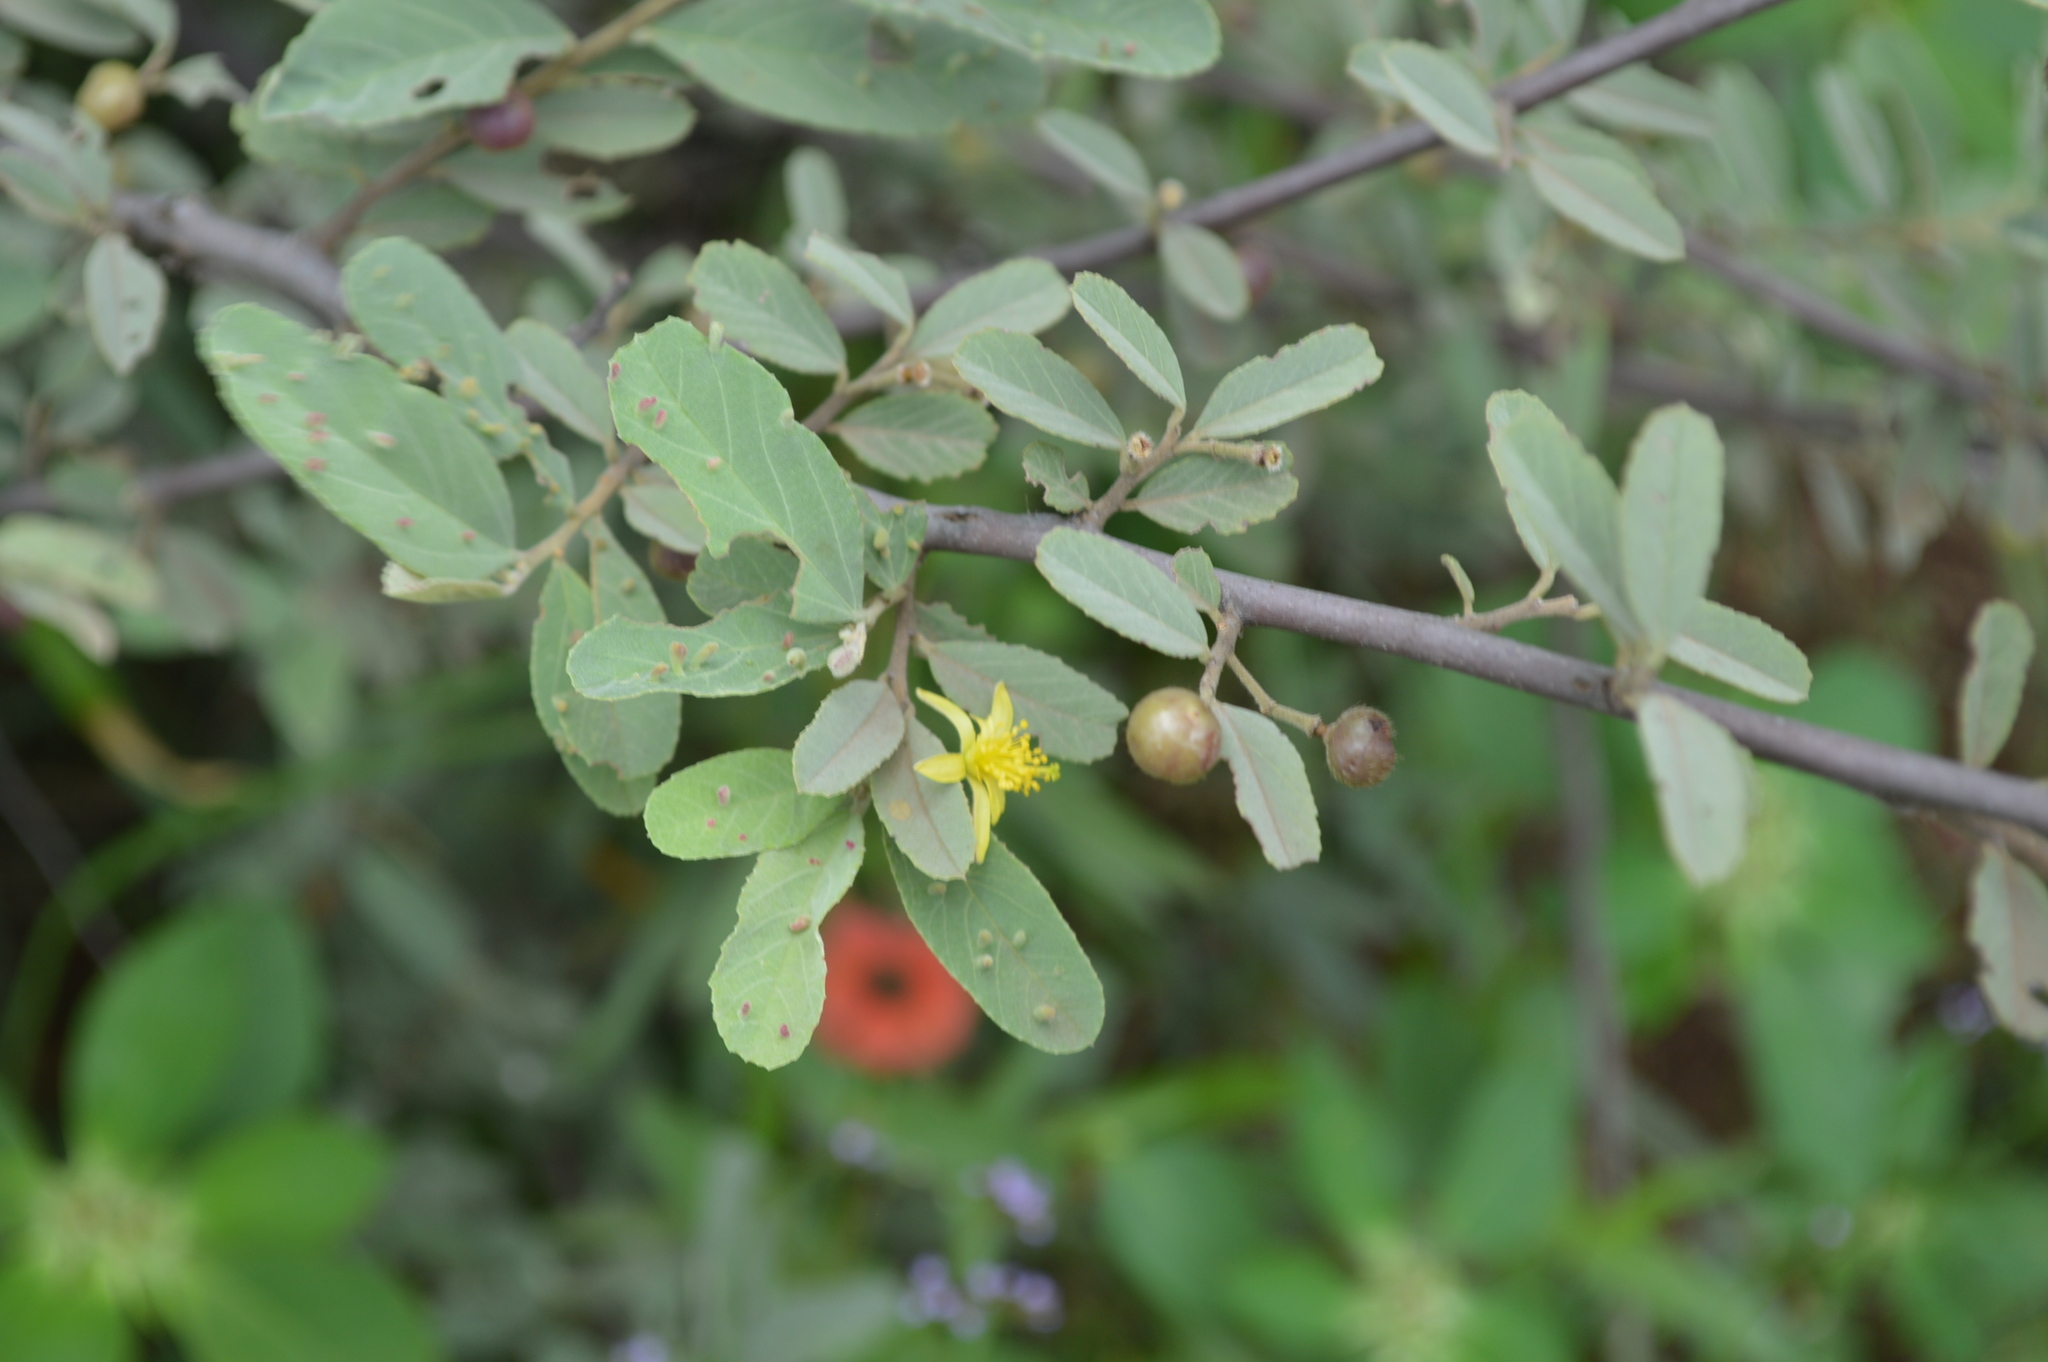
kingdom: Plantae
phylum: Tracheophyta
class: Magnoliopsida
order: Malvales
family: Malvaceae
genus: Grewia
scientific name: Grewia flava
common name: Brandy bush
